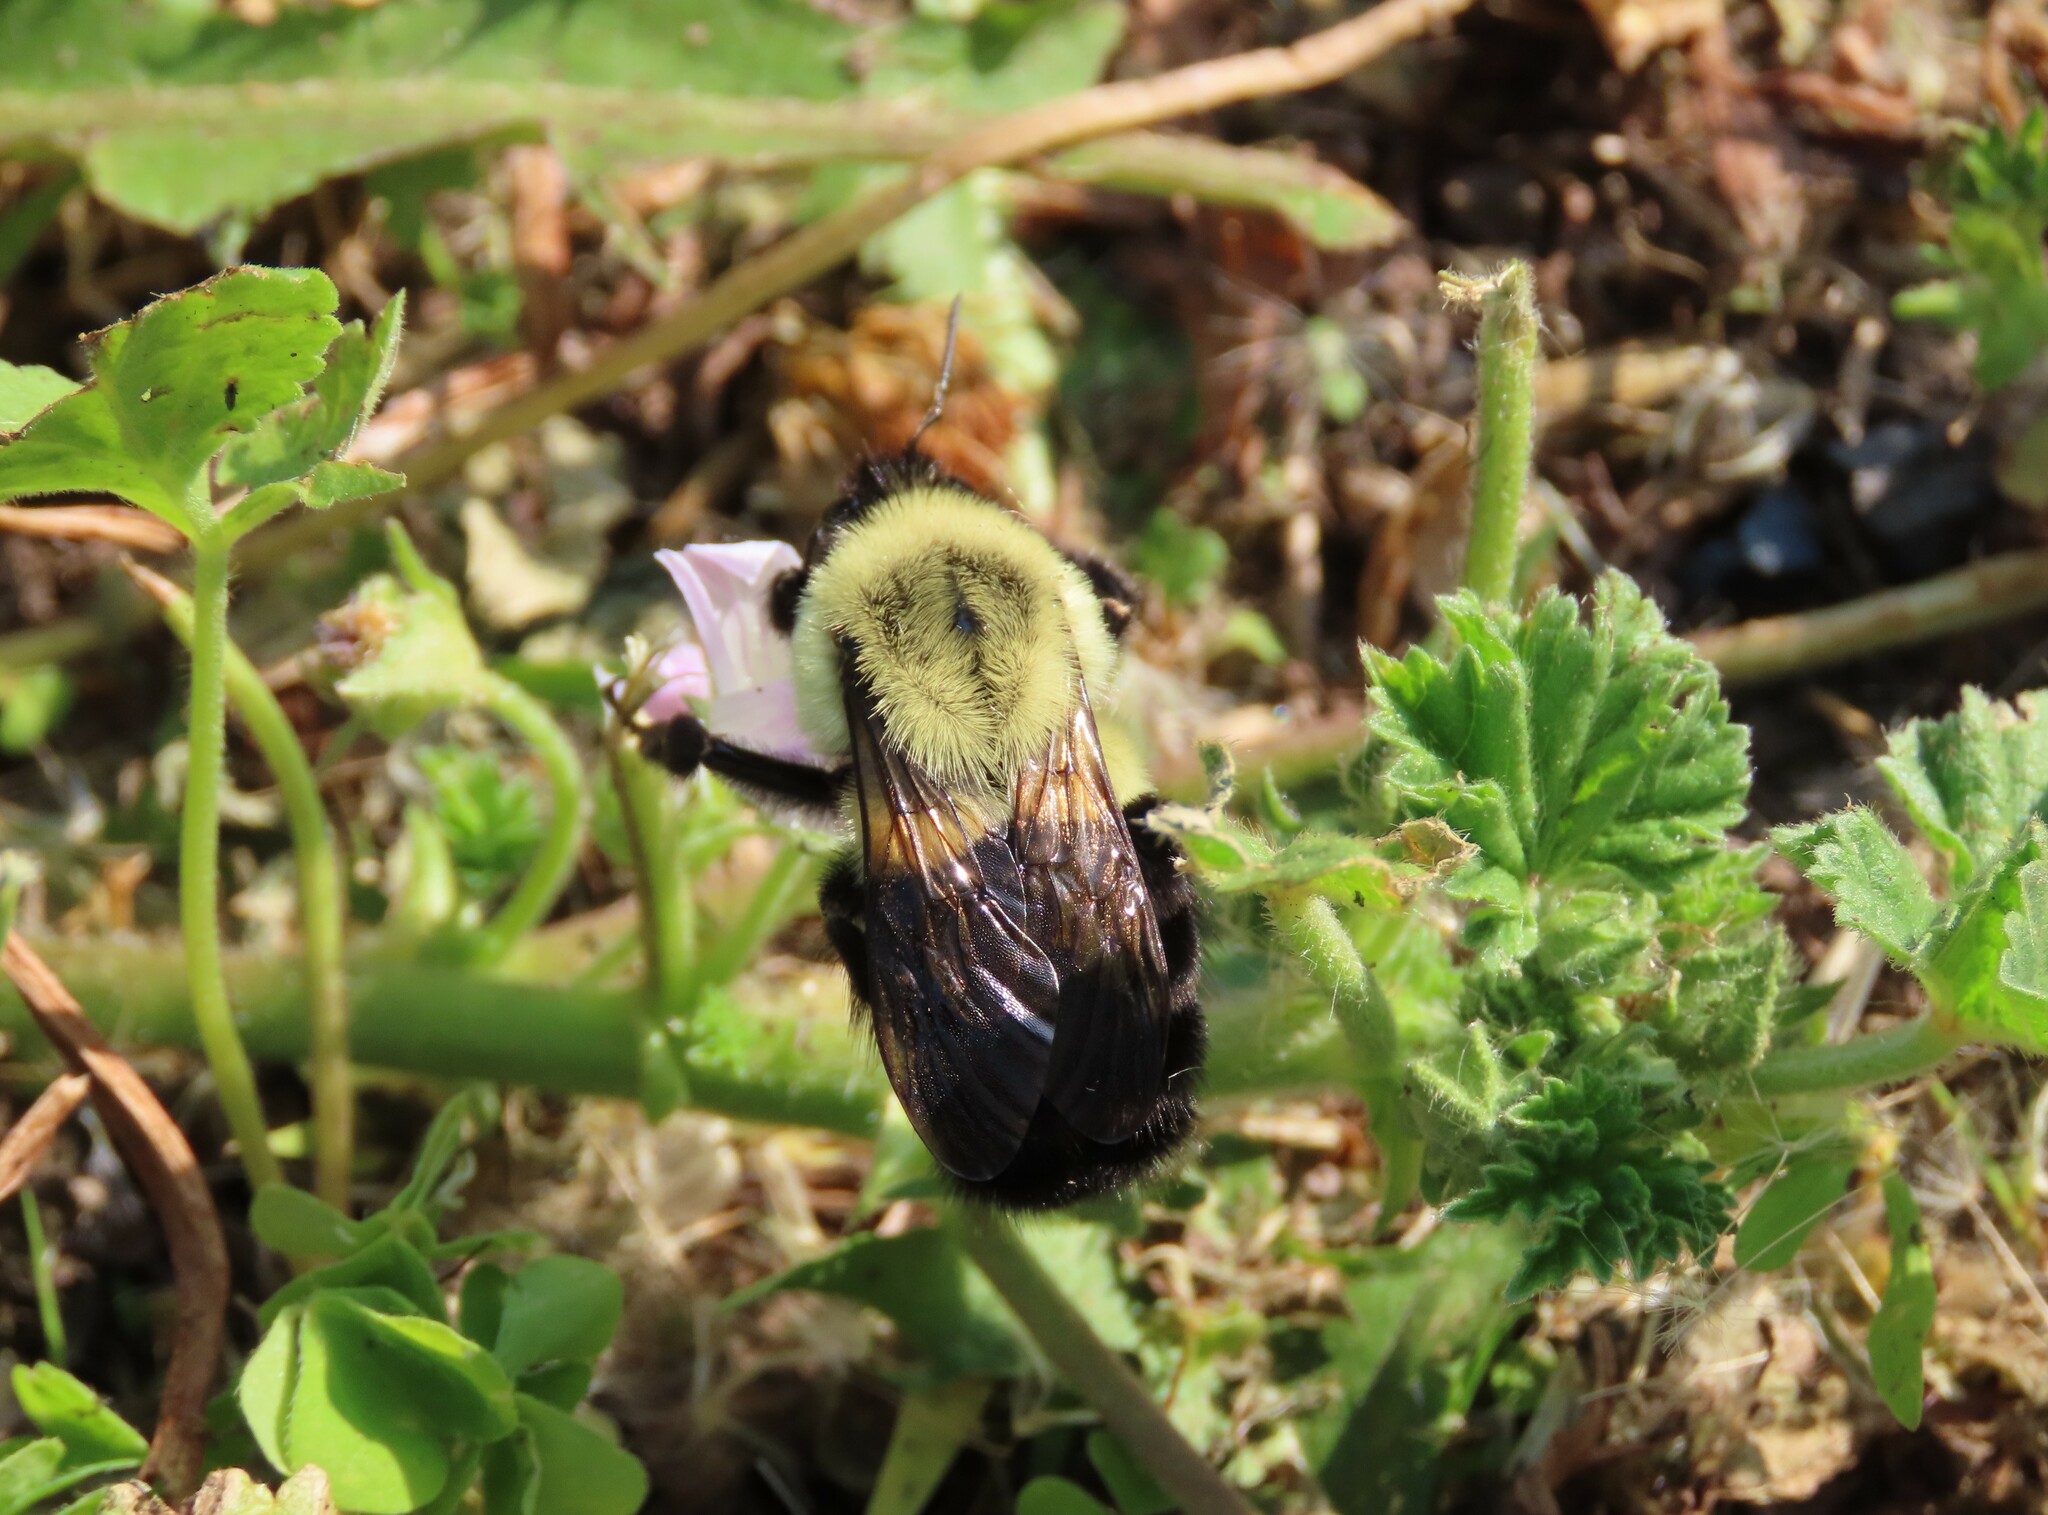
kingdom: Animalia
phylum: Arthropoda
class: Insecta
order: Hymenoptera
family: Apidae
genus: Bombus
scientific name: Bombus impatiens
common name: Common eastern bumble bee
